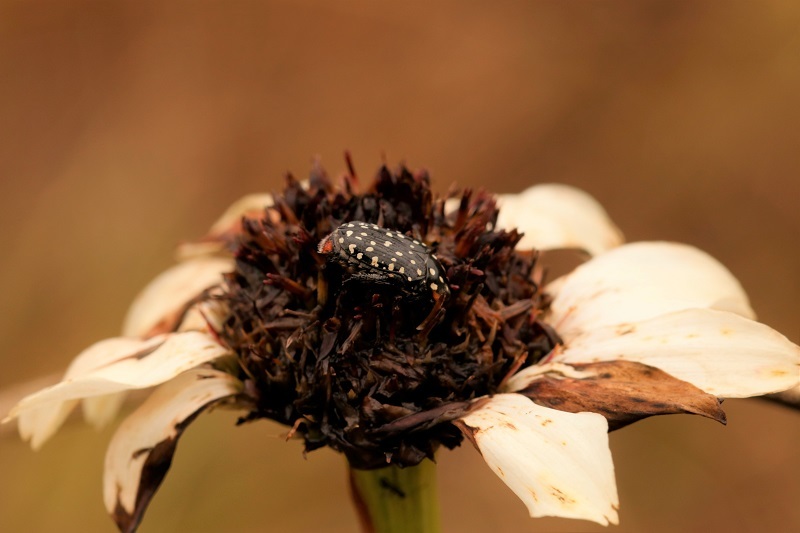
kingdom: Animalia
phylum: Arthropoda
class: Insecta
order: Coleoptera
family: Scarabaeidae
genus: Oxythyrea
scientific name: Oxythyrea
